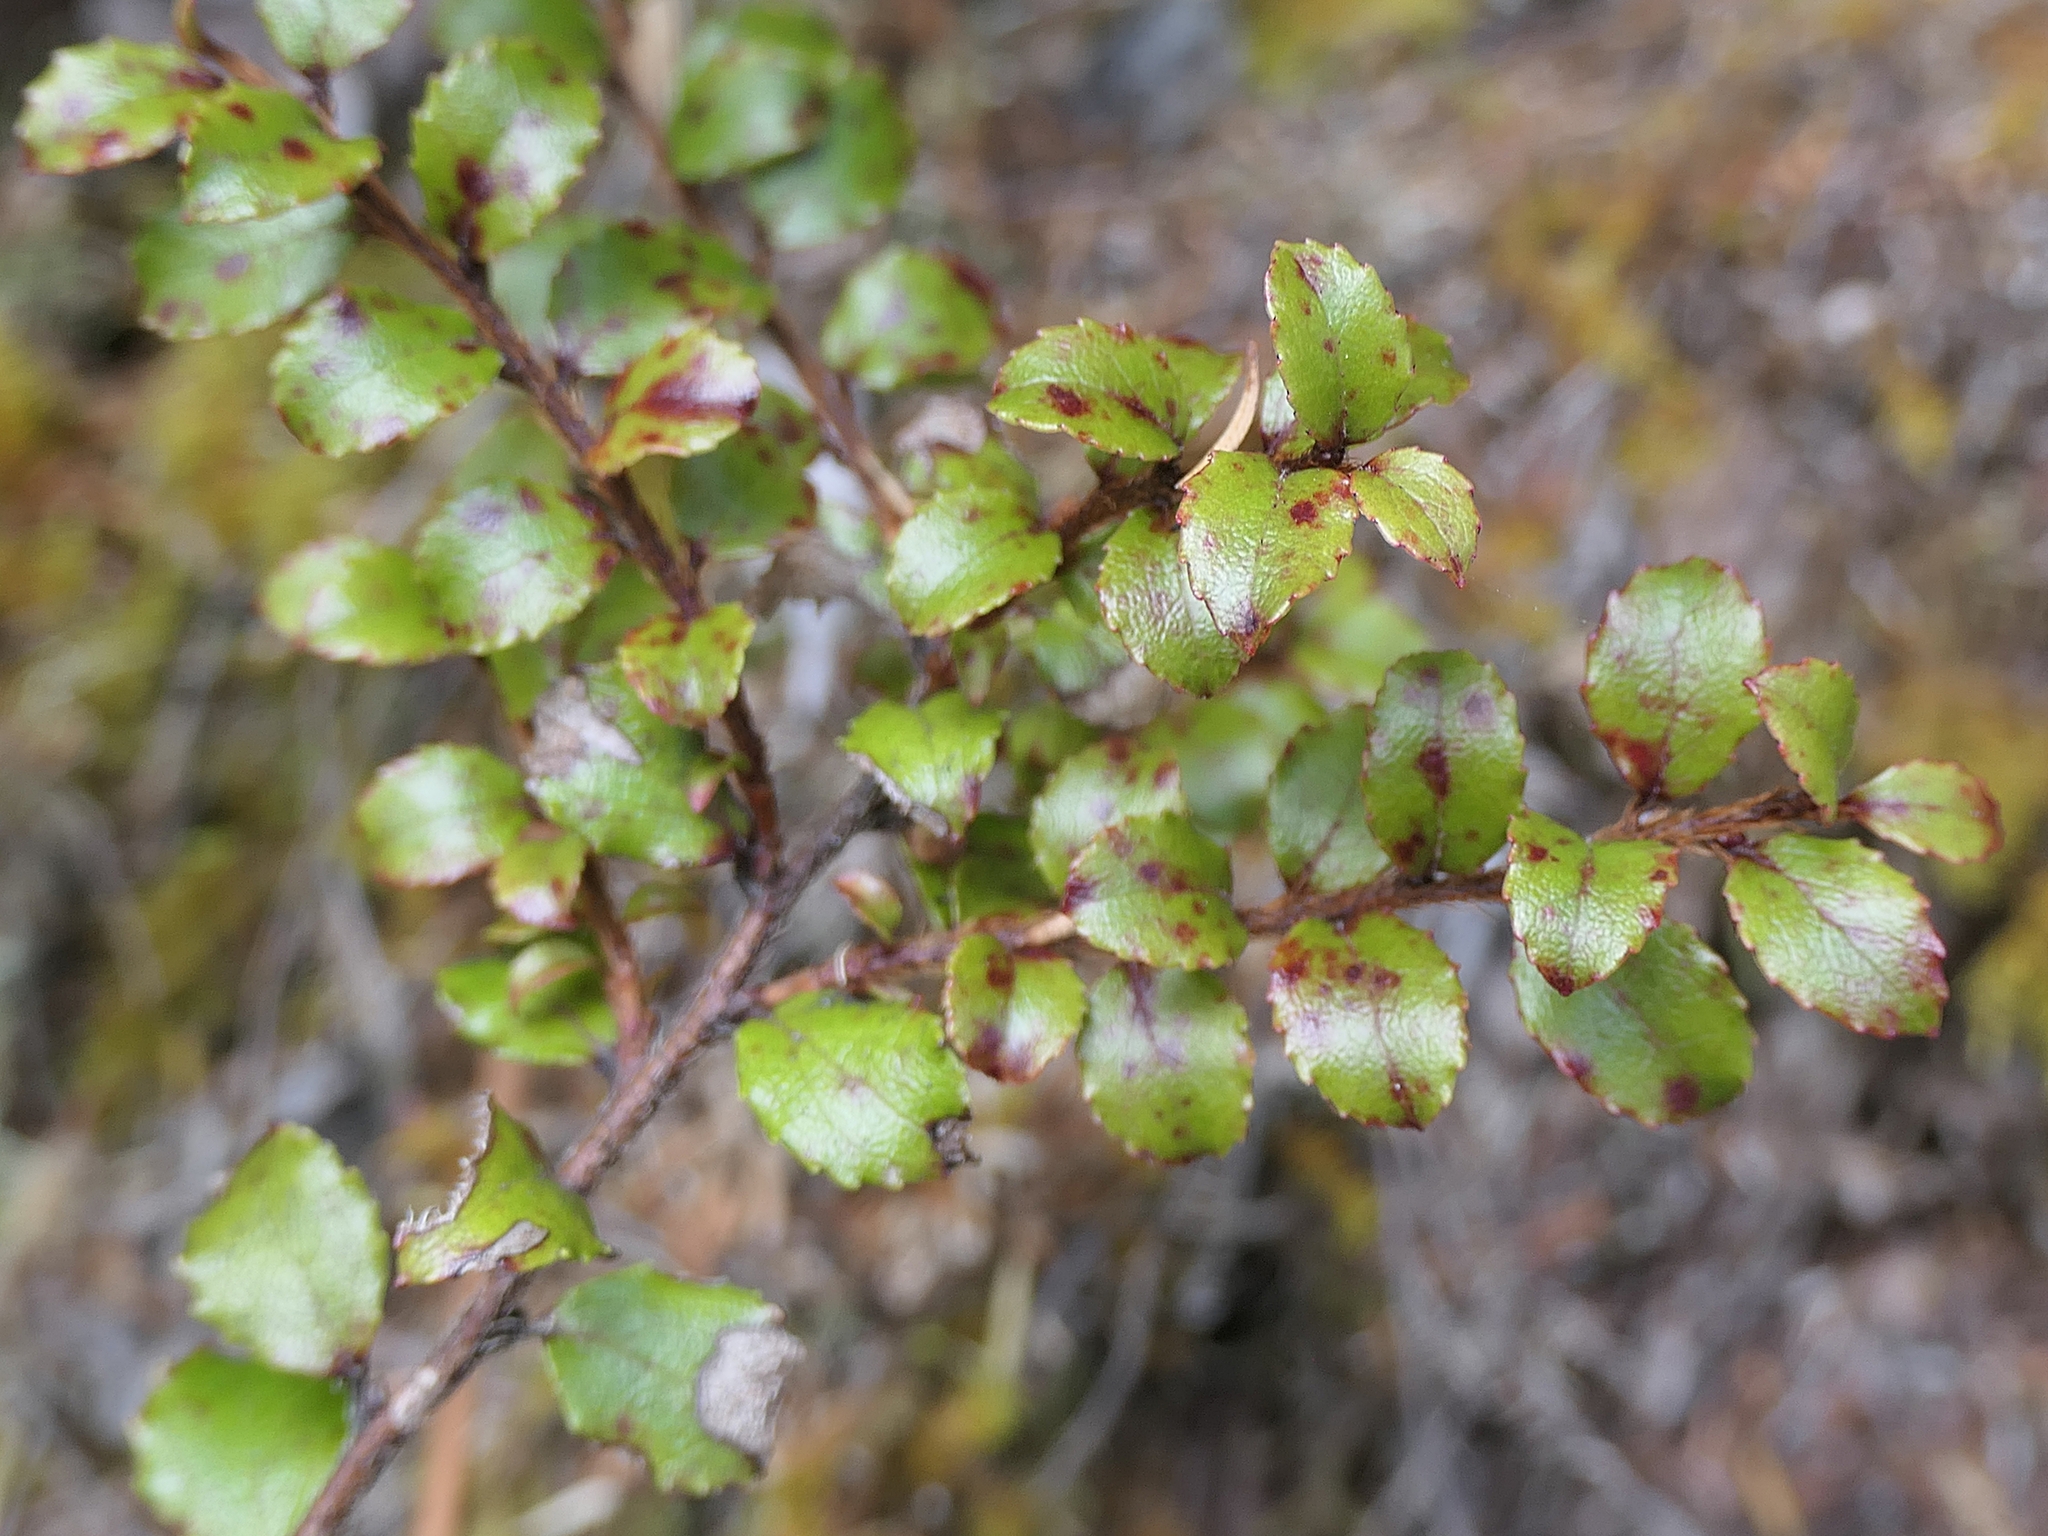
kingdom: Plantae
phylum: Tracheophyta
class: Magnoliopsida
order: Ericales
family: Ericaceae
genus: Gaultheria
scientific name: Gaultheria antipoda
